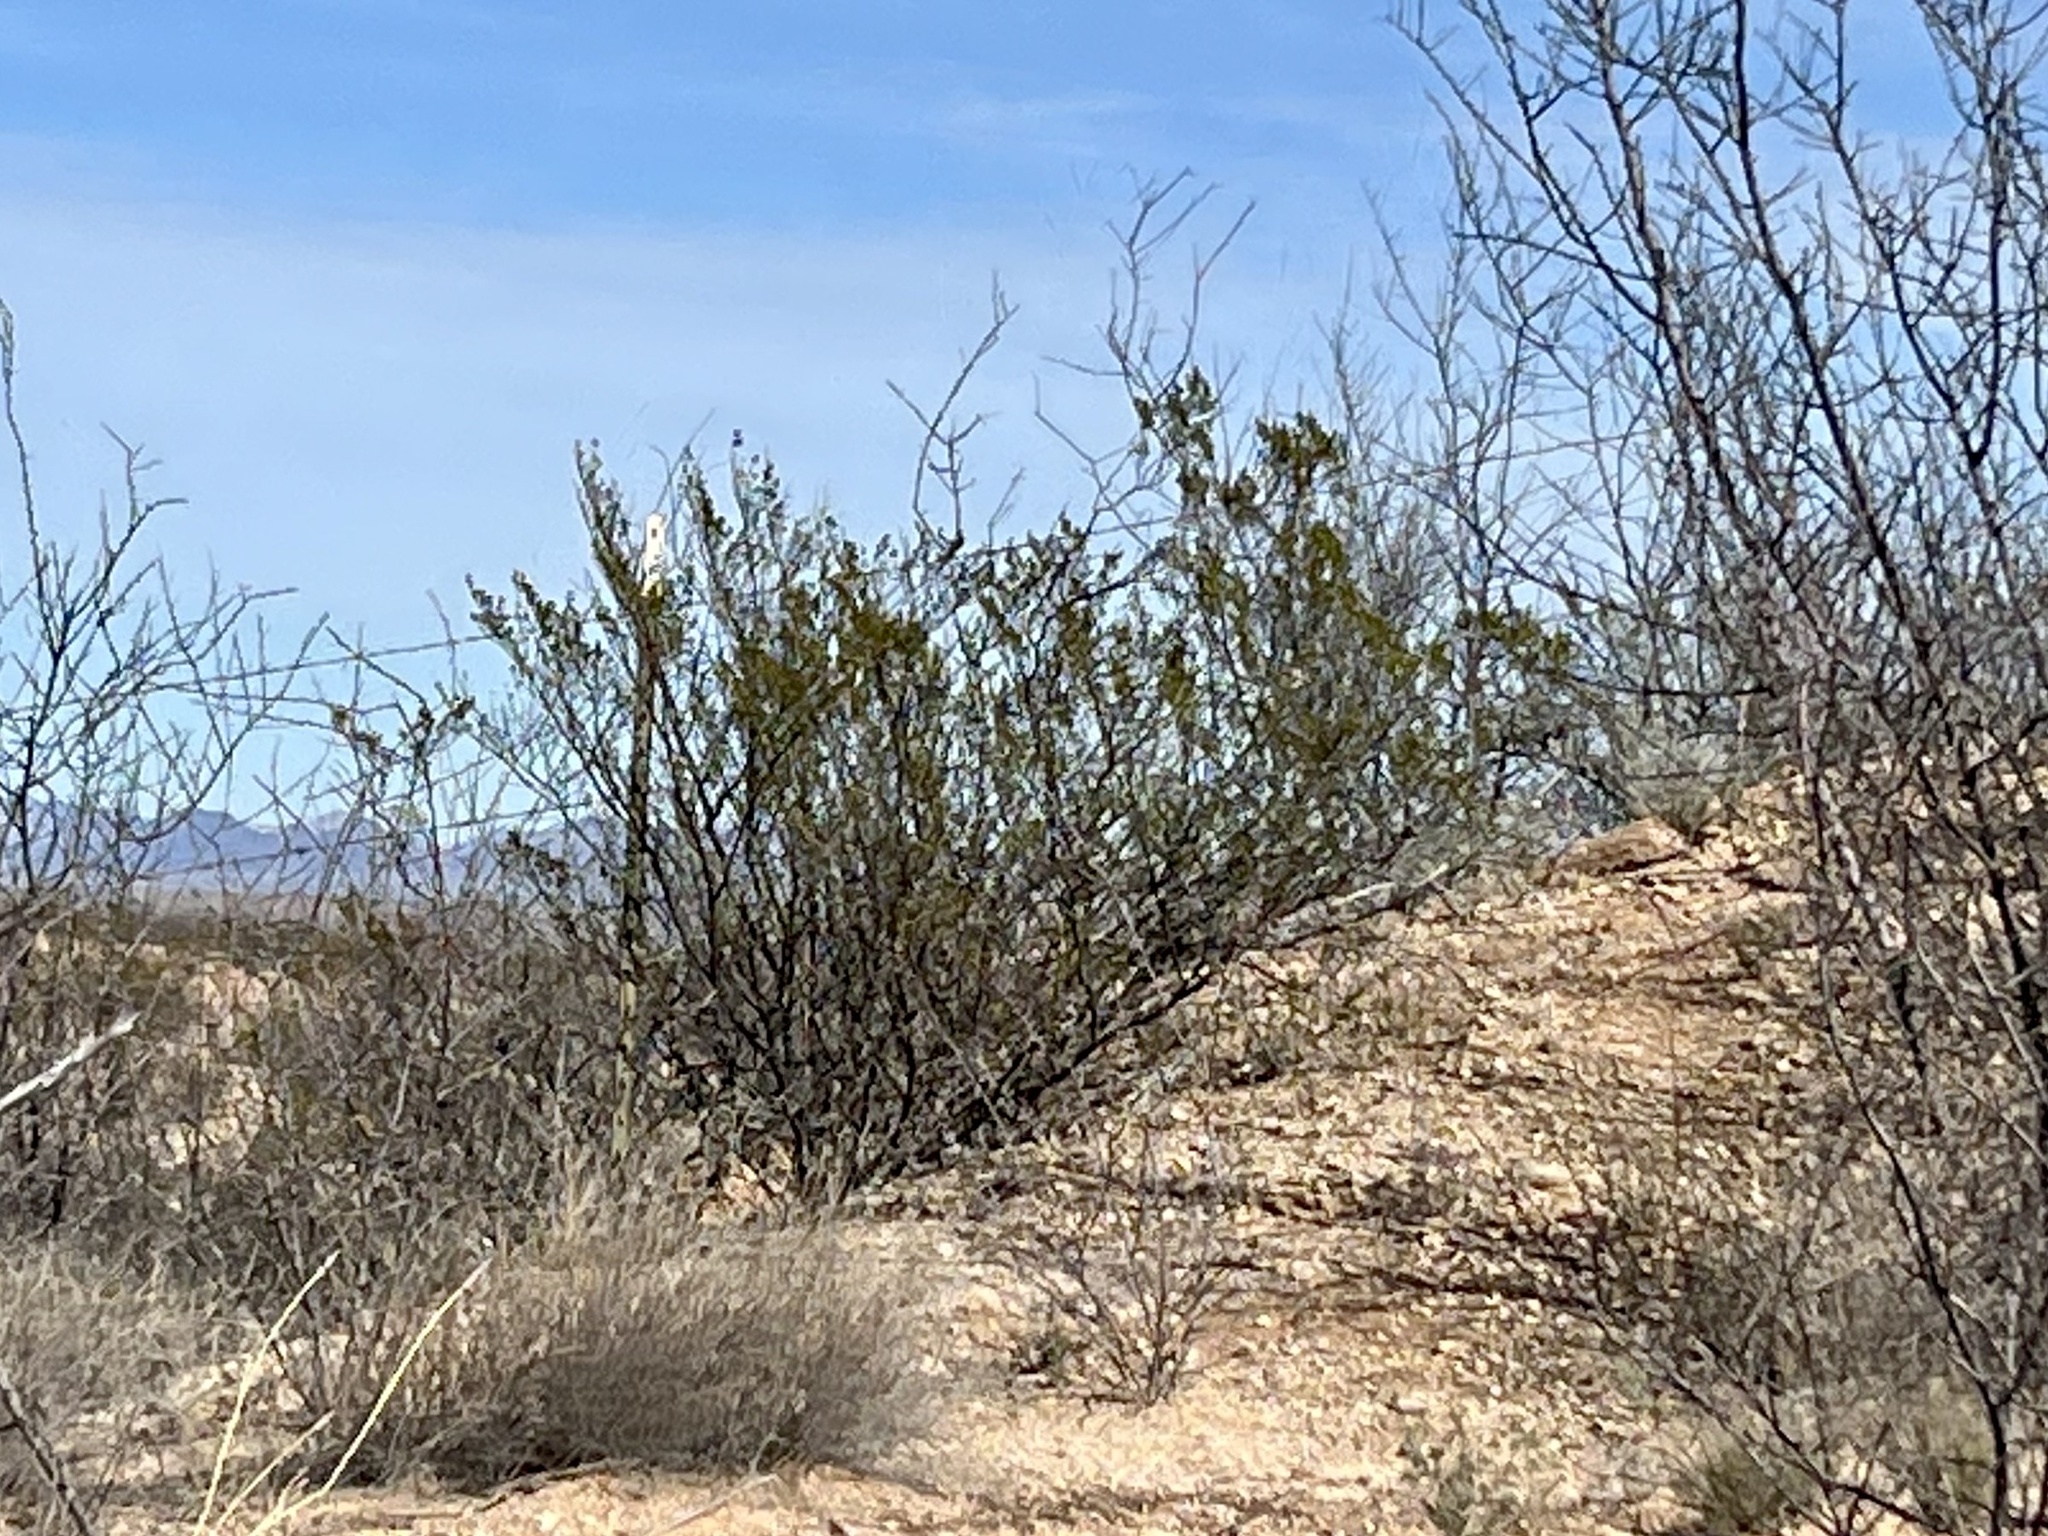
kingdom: Plantae
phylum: Tracheophyta
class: Magnoliopsida
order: Zygophyllales
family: Zygophyllaceae
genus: Larrea
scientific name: Larrea tridentata
